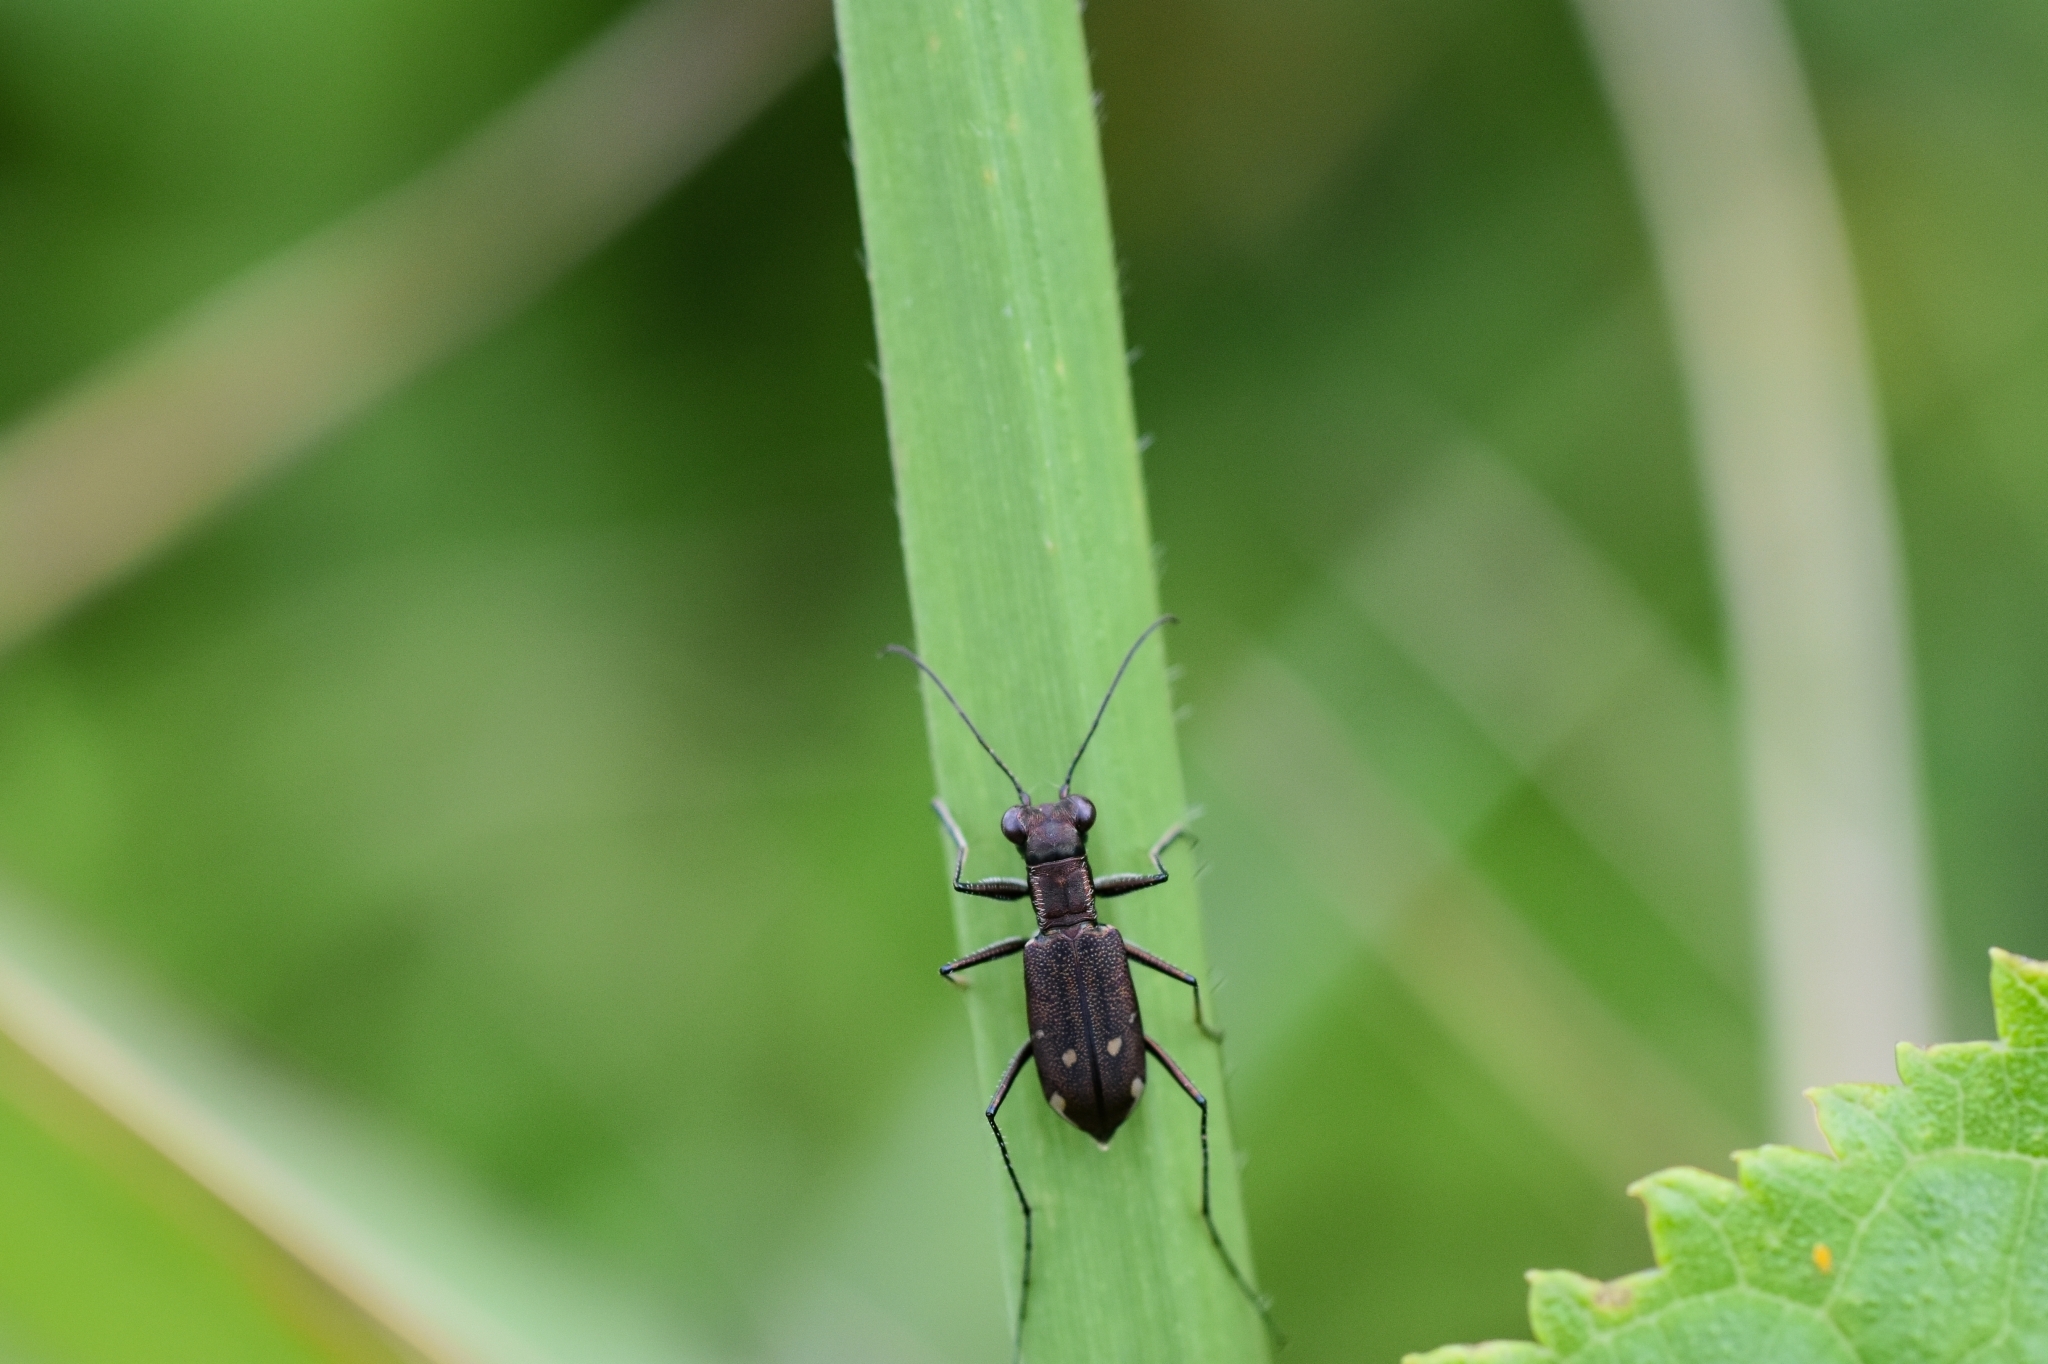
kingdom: Animalia
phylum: Arthropoda
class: Insecta
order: Coleoptera
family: Carabidae
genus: Cylindera
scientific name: Cylindera kaleea
